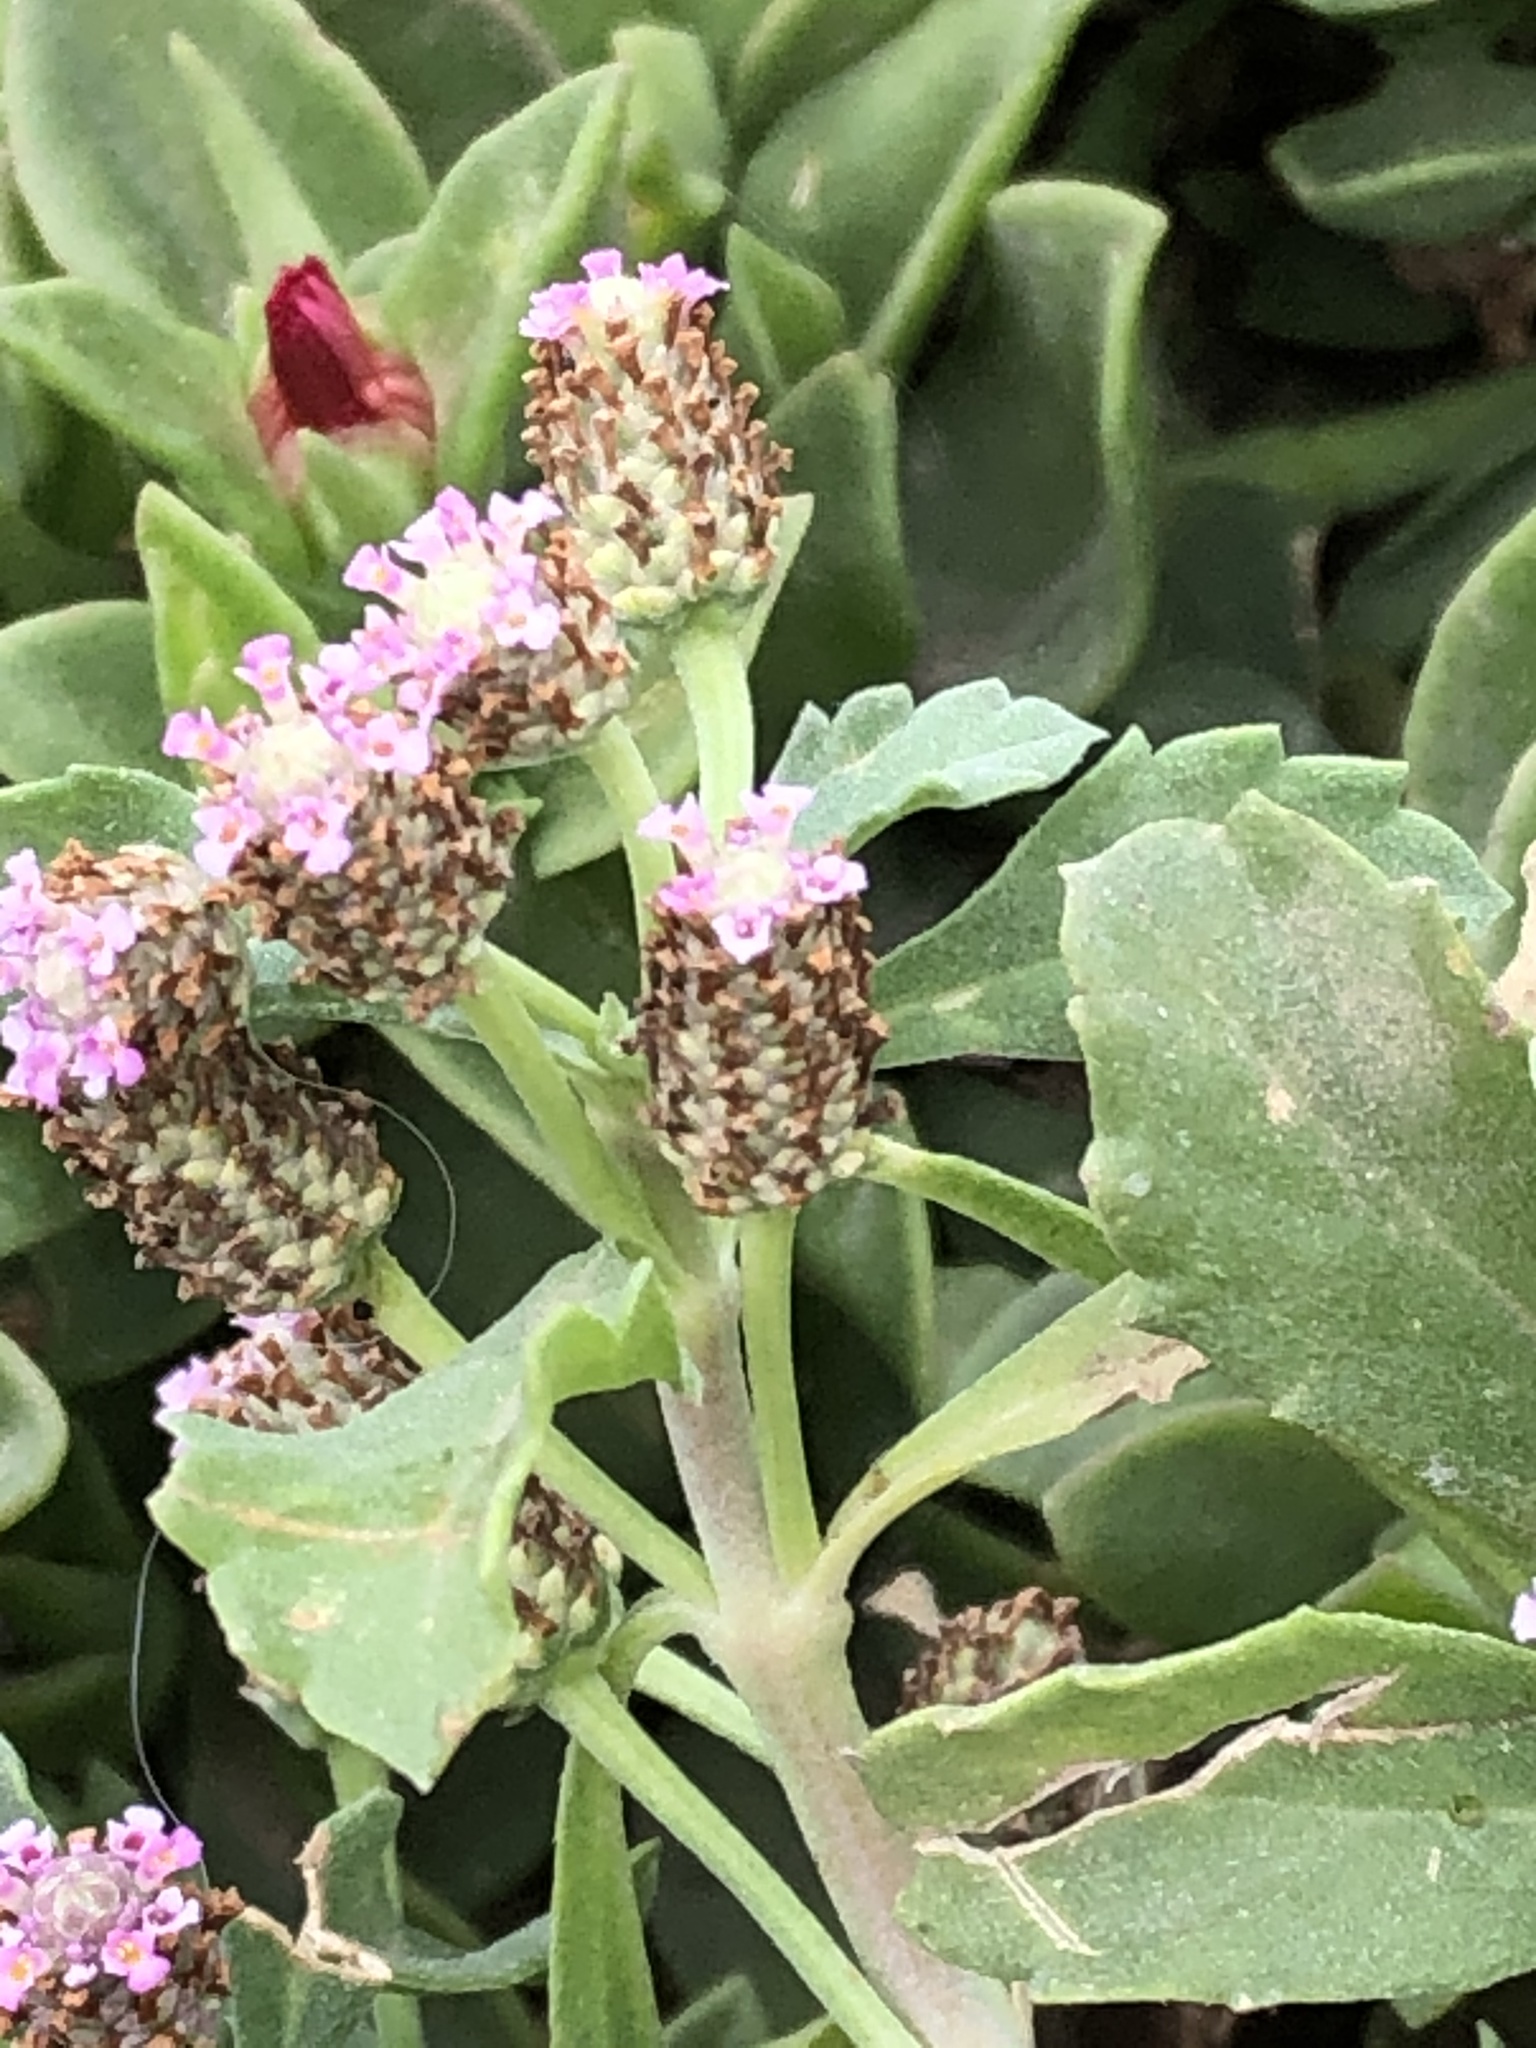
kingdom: Plantae
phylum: Tracheophyta
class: Magnoliopsida
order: Lamiales
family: Verbenaceae
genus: Phyla
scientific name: Phyla nodiflora
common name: Frogfruit
